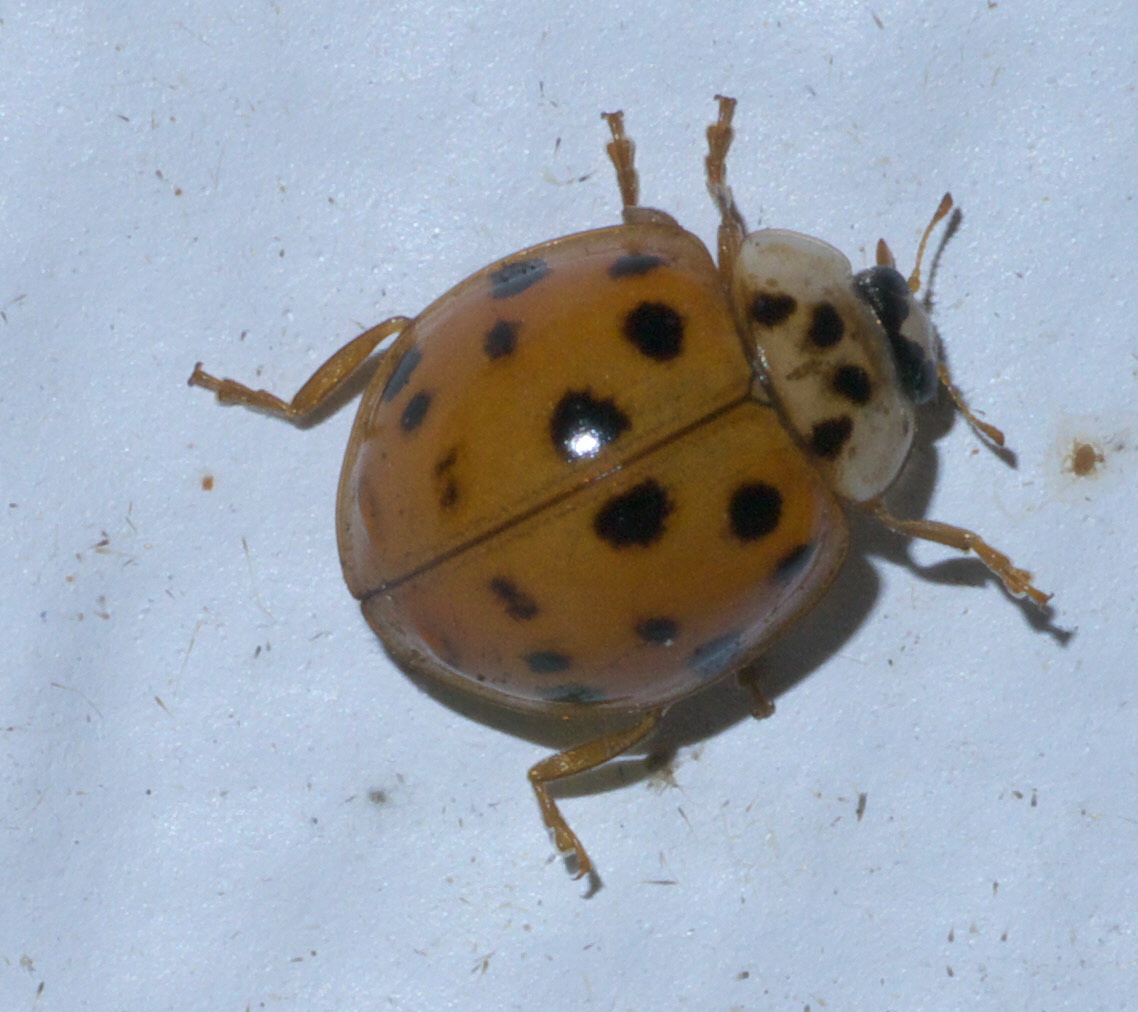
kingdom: Animalia
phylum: Arthropoda
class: Insecta
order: Coleoptera
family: Coccinellidae
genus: Harmonia
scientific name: Harmonia axyridis
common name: Harlequin ladybird
